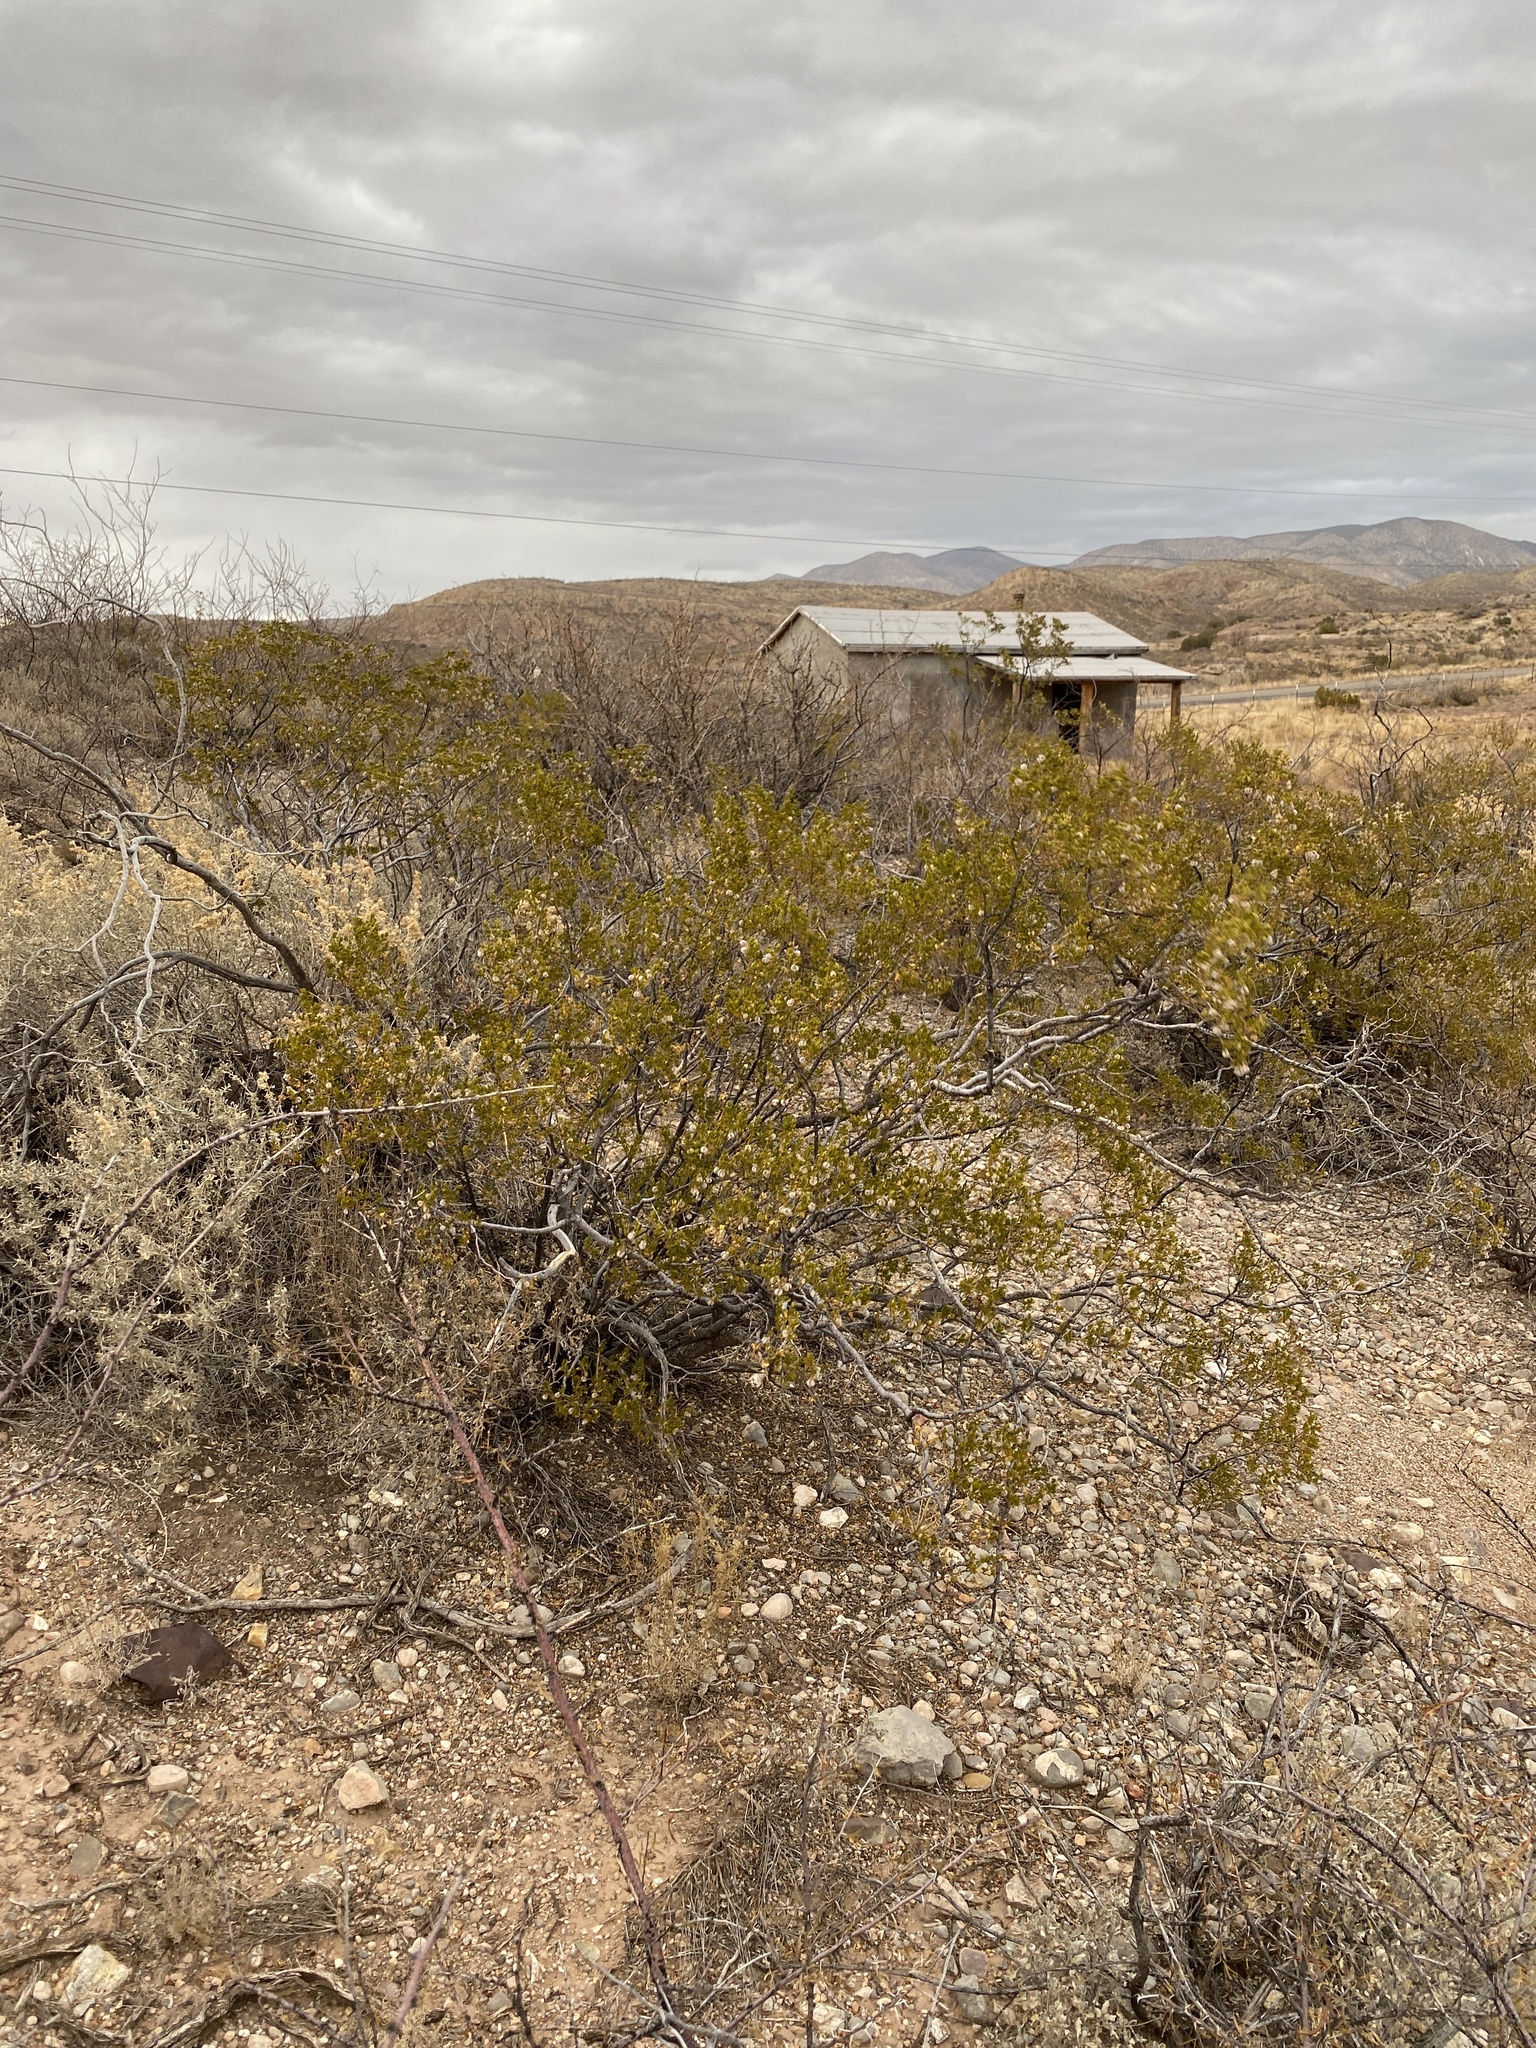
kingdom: Plantae
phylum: Tracheophyta
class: Magnoliopsida
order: Zygophyllales
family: Zygophyllaceae
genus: Larrea
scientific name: Larrea tridentata
